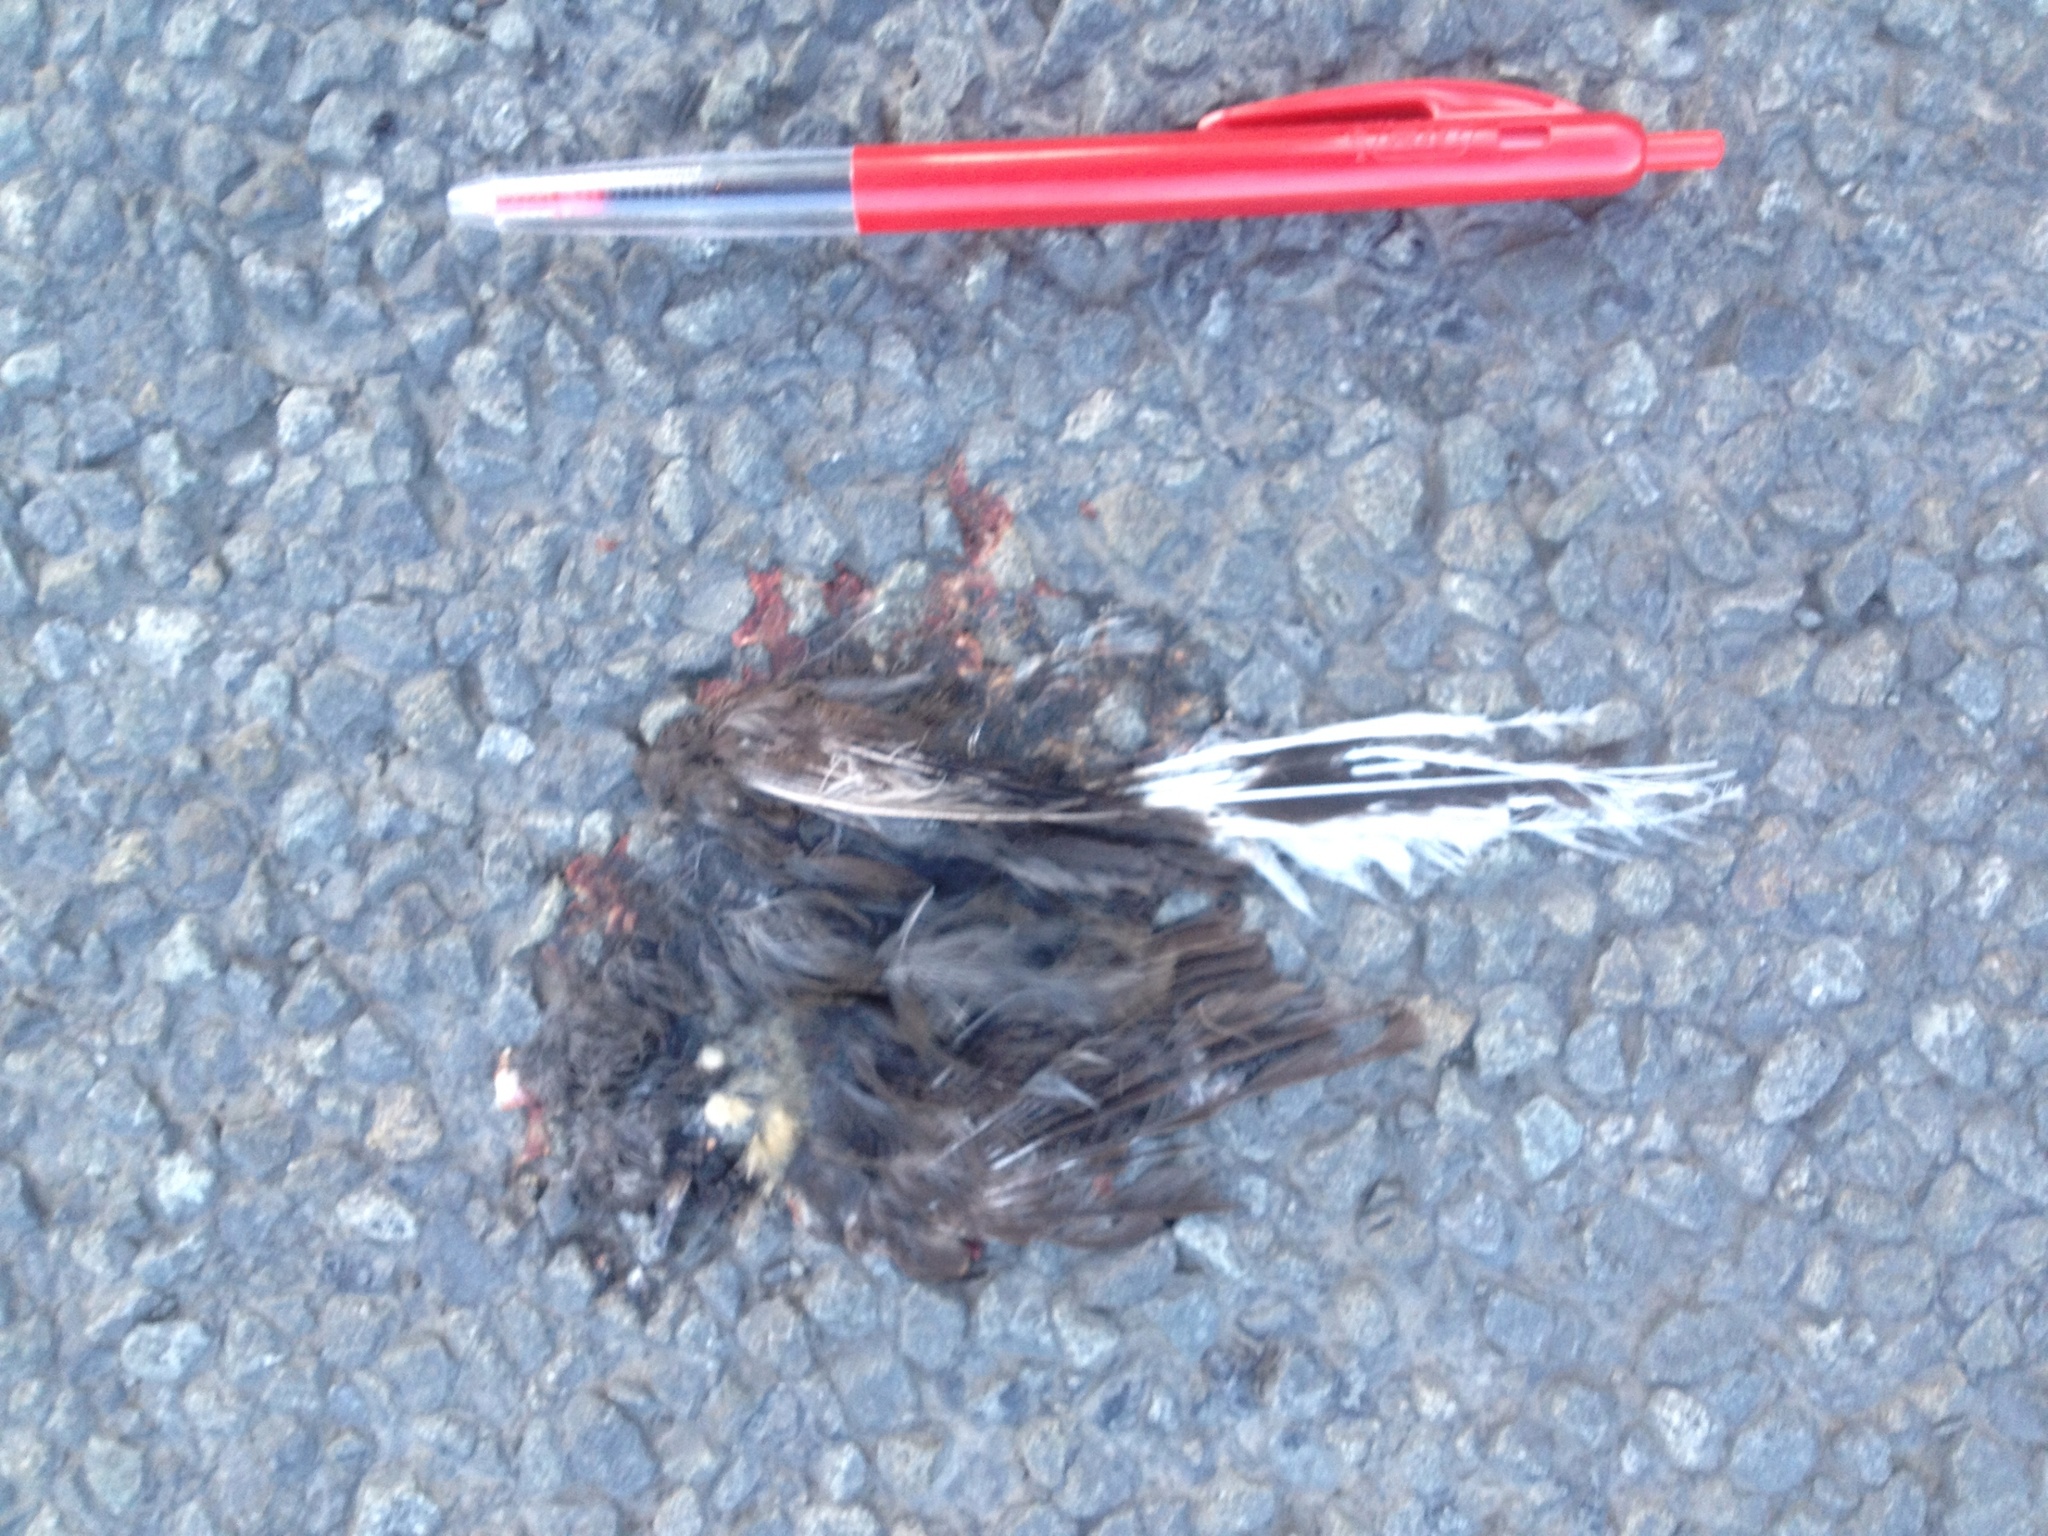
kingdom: Animalia
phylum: Chordata
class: Aves
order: Passeriformes
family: Rhipiduridae
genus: Rhipidura
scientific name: Rhipidura fuliginosa
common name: New zealand fantail
